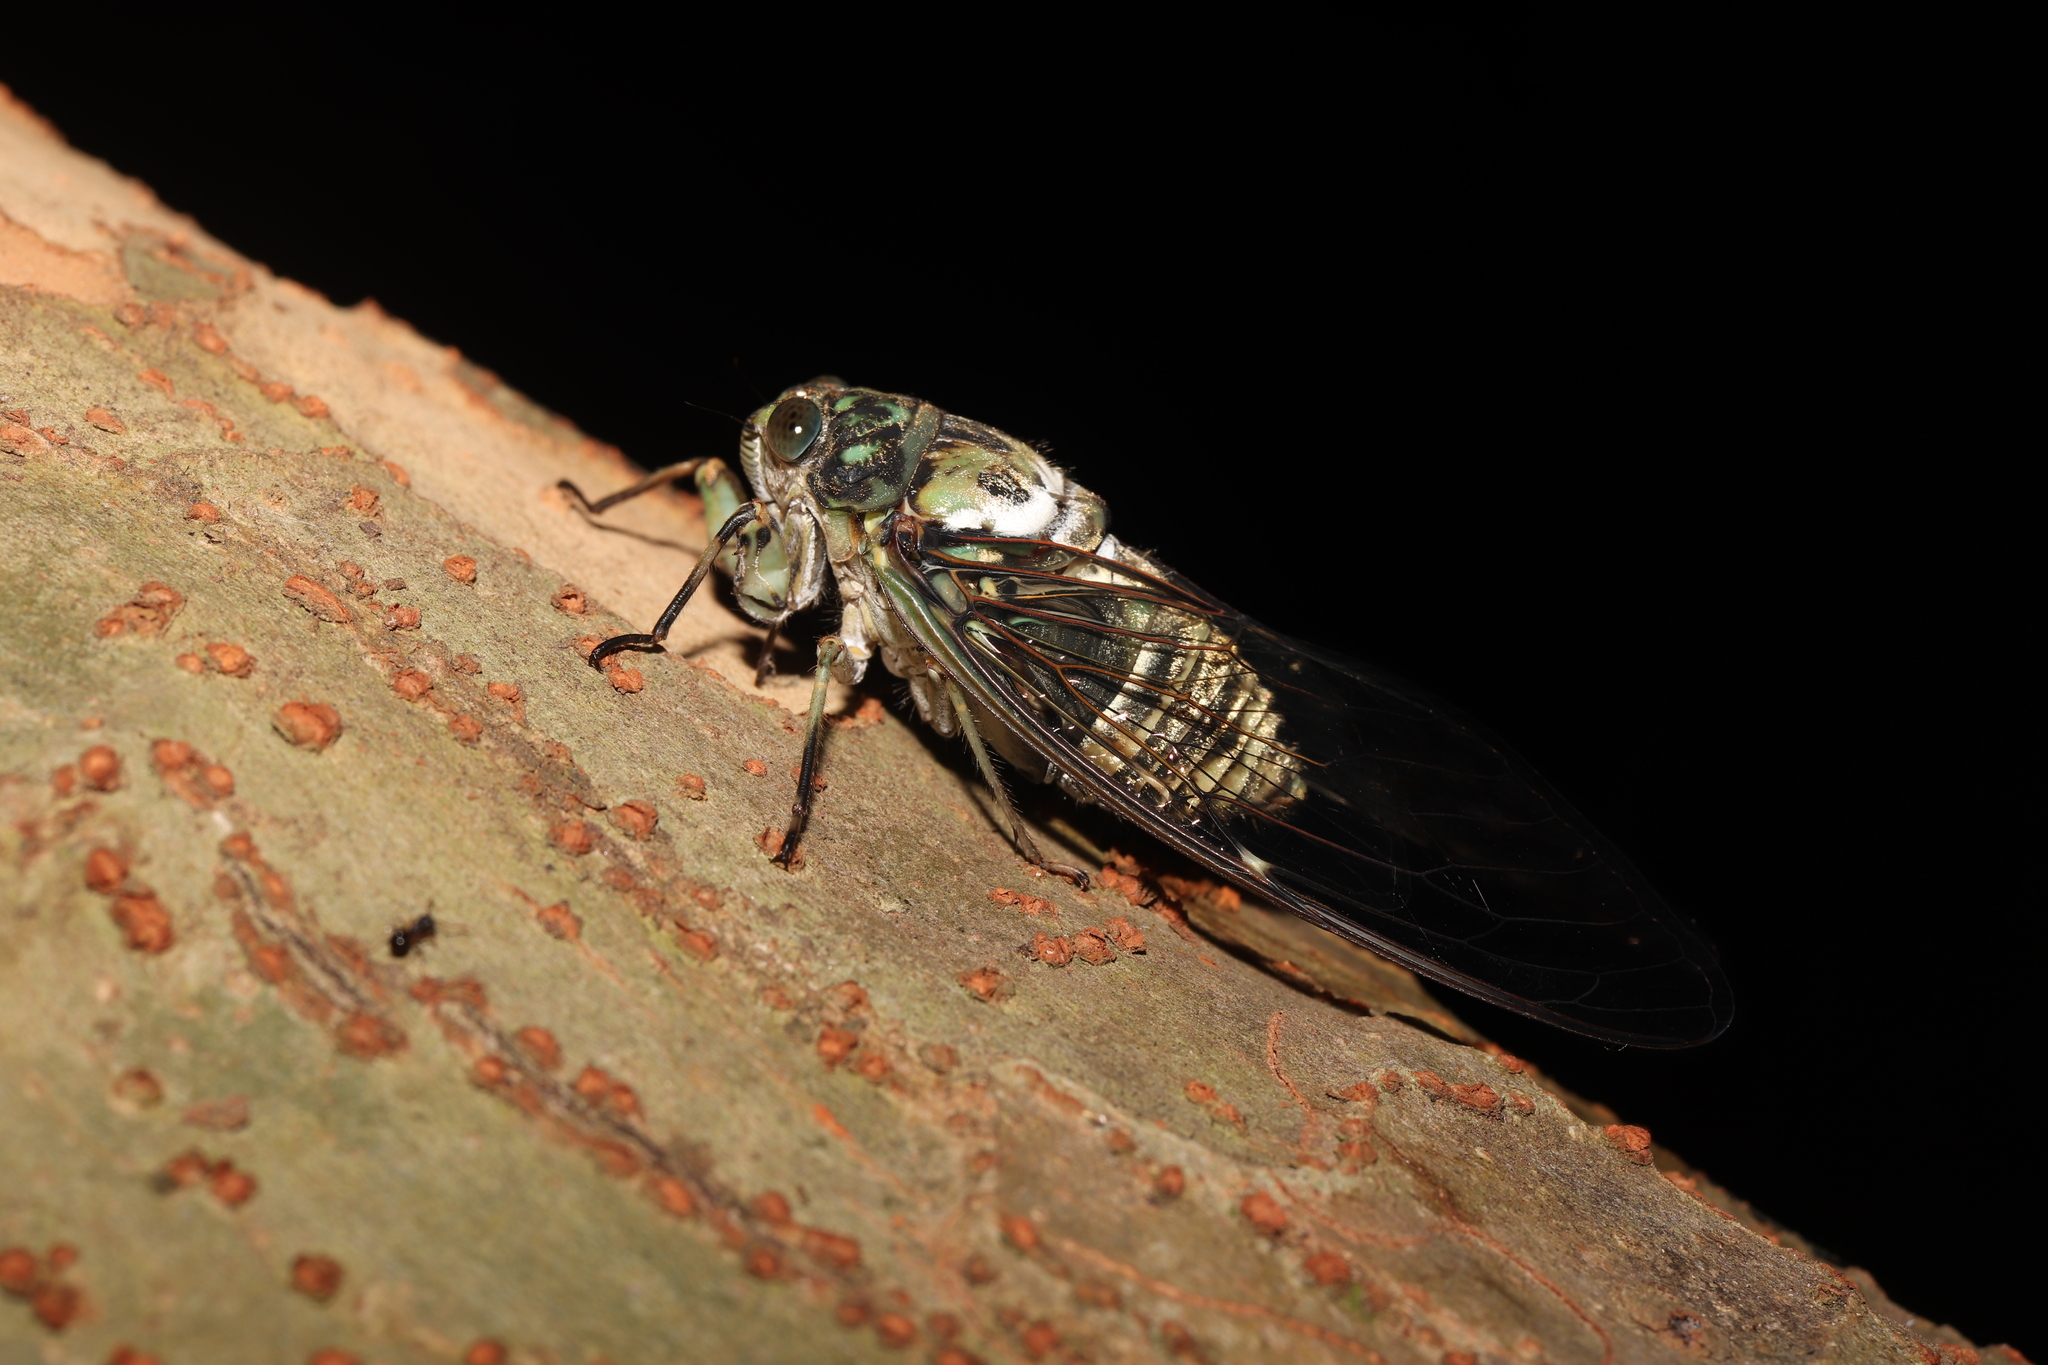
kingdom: Animalia
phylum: Arthropoda
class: Insecta
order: Hemiptera
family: Cicadidae
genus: Hyalessa
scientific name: Hyalessa maculaticollis
